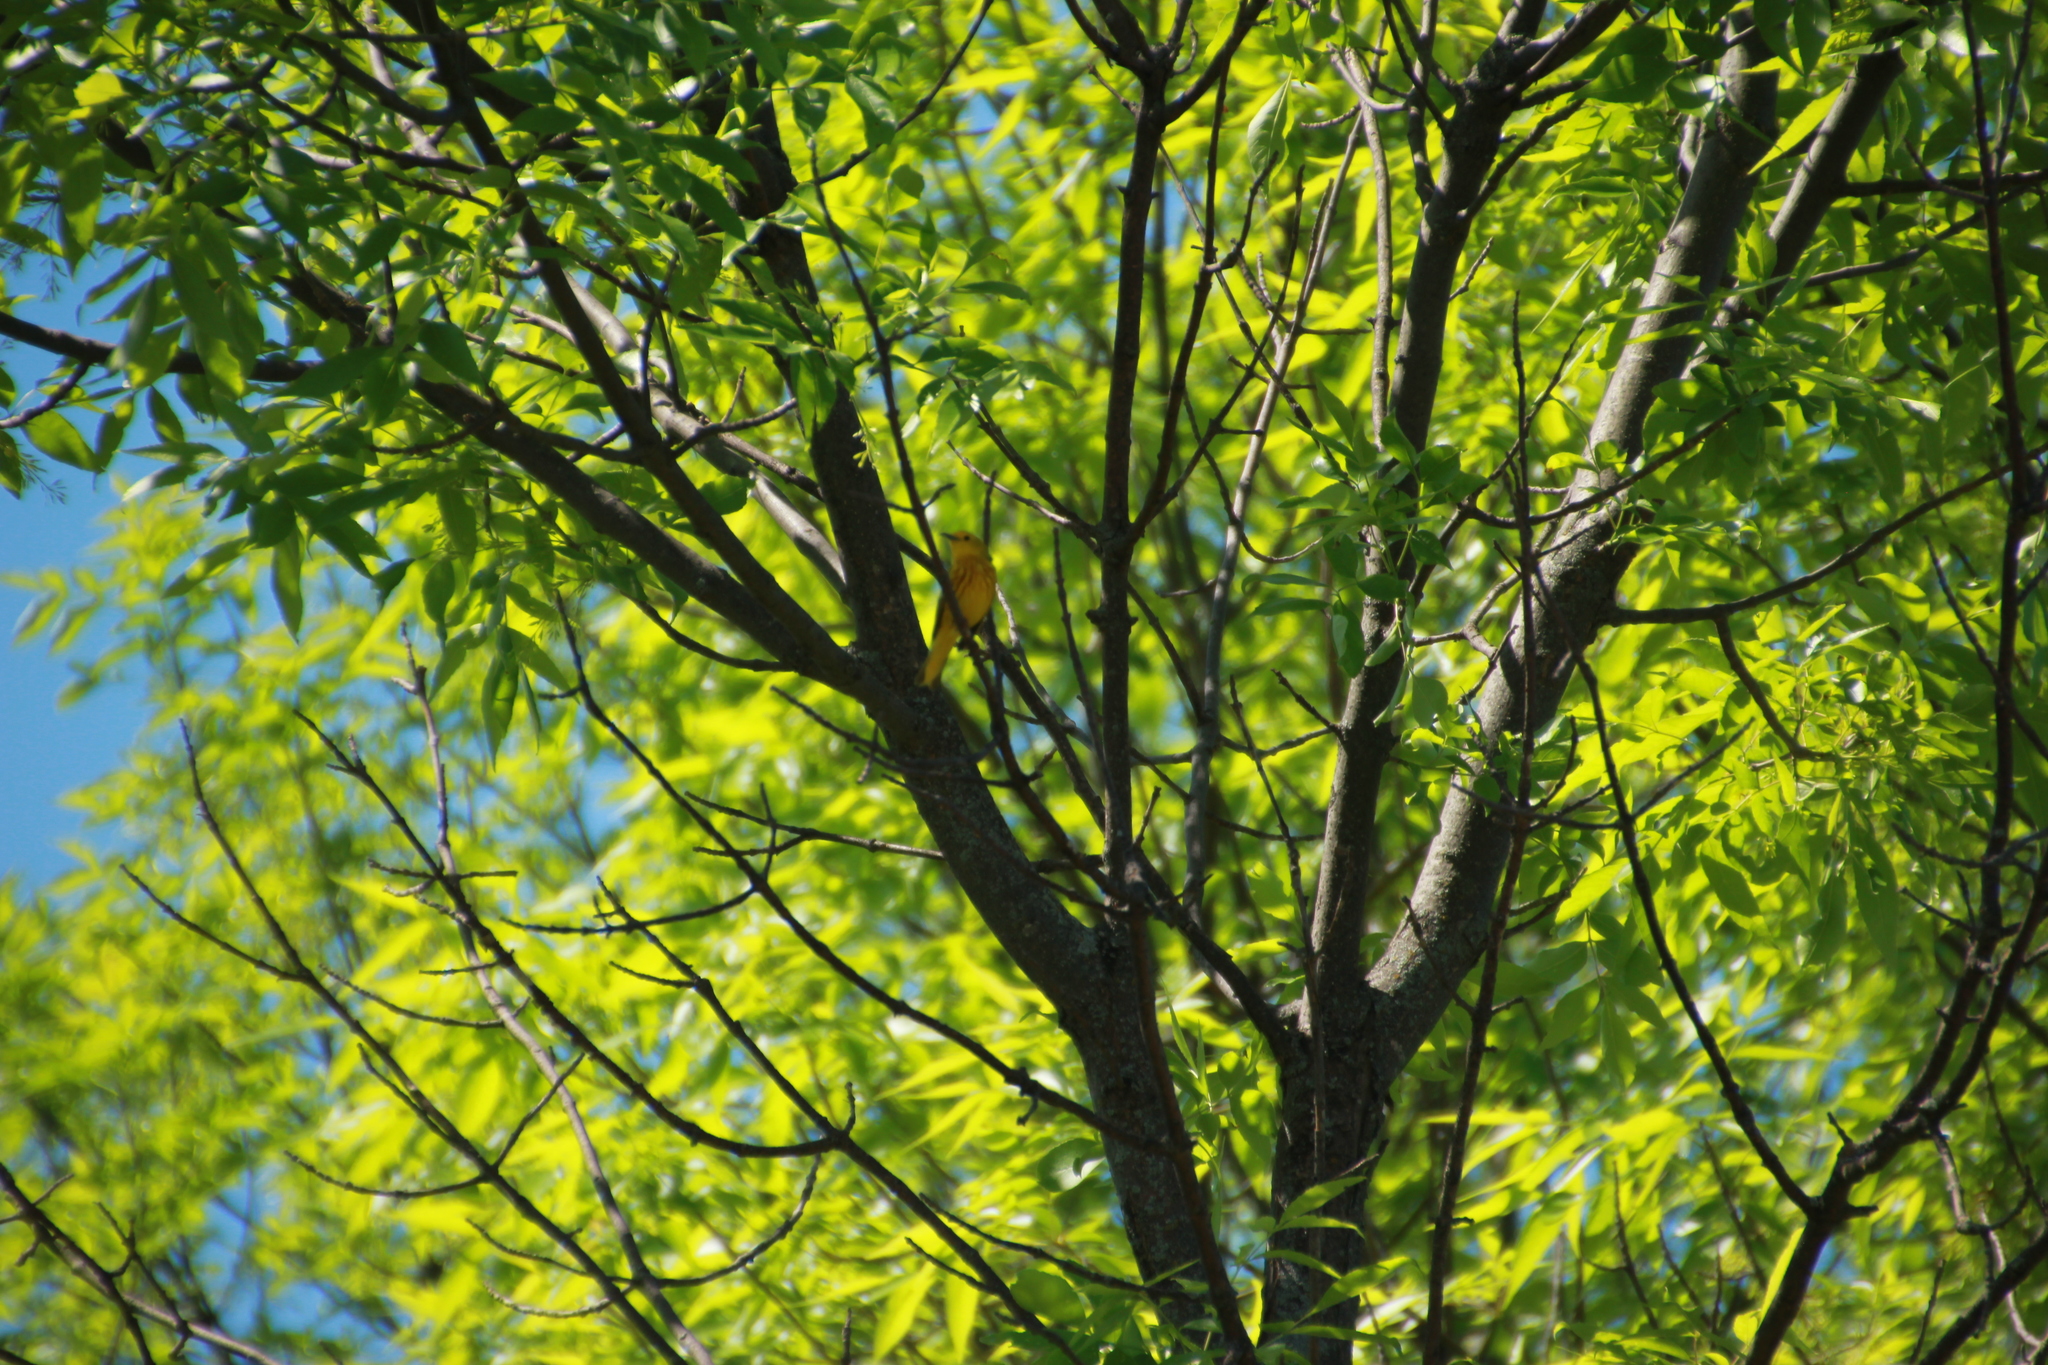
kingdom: Animalia
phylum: Chordata
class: Aves
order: Passeriformes
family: Parulidae
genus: Setophaga
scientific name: Setophaga petechia
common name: Yellow warbler
